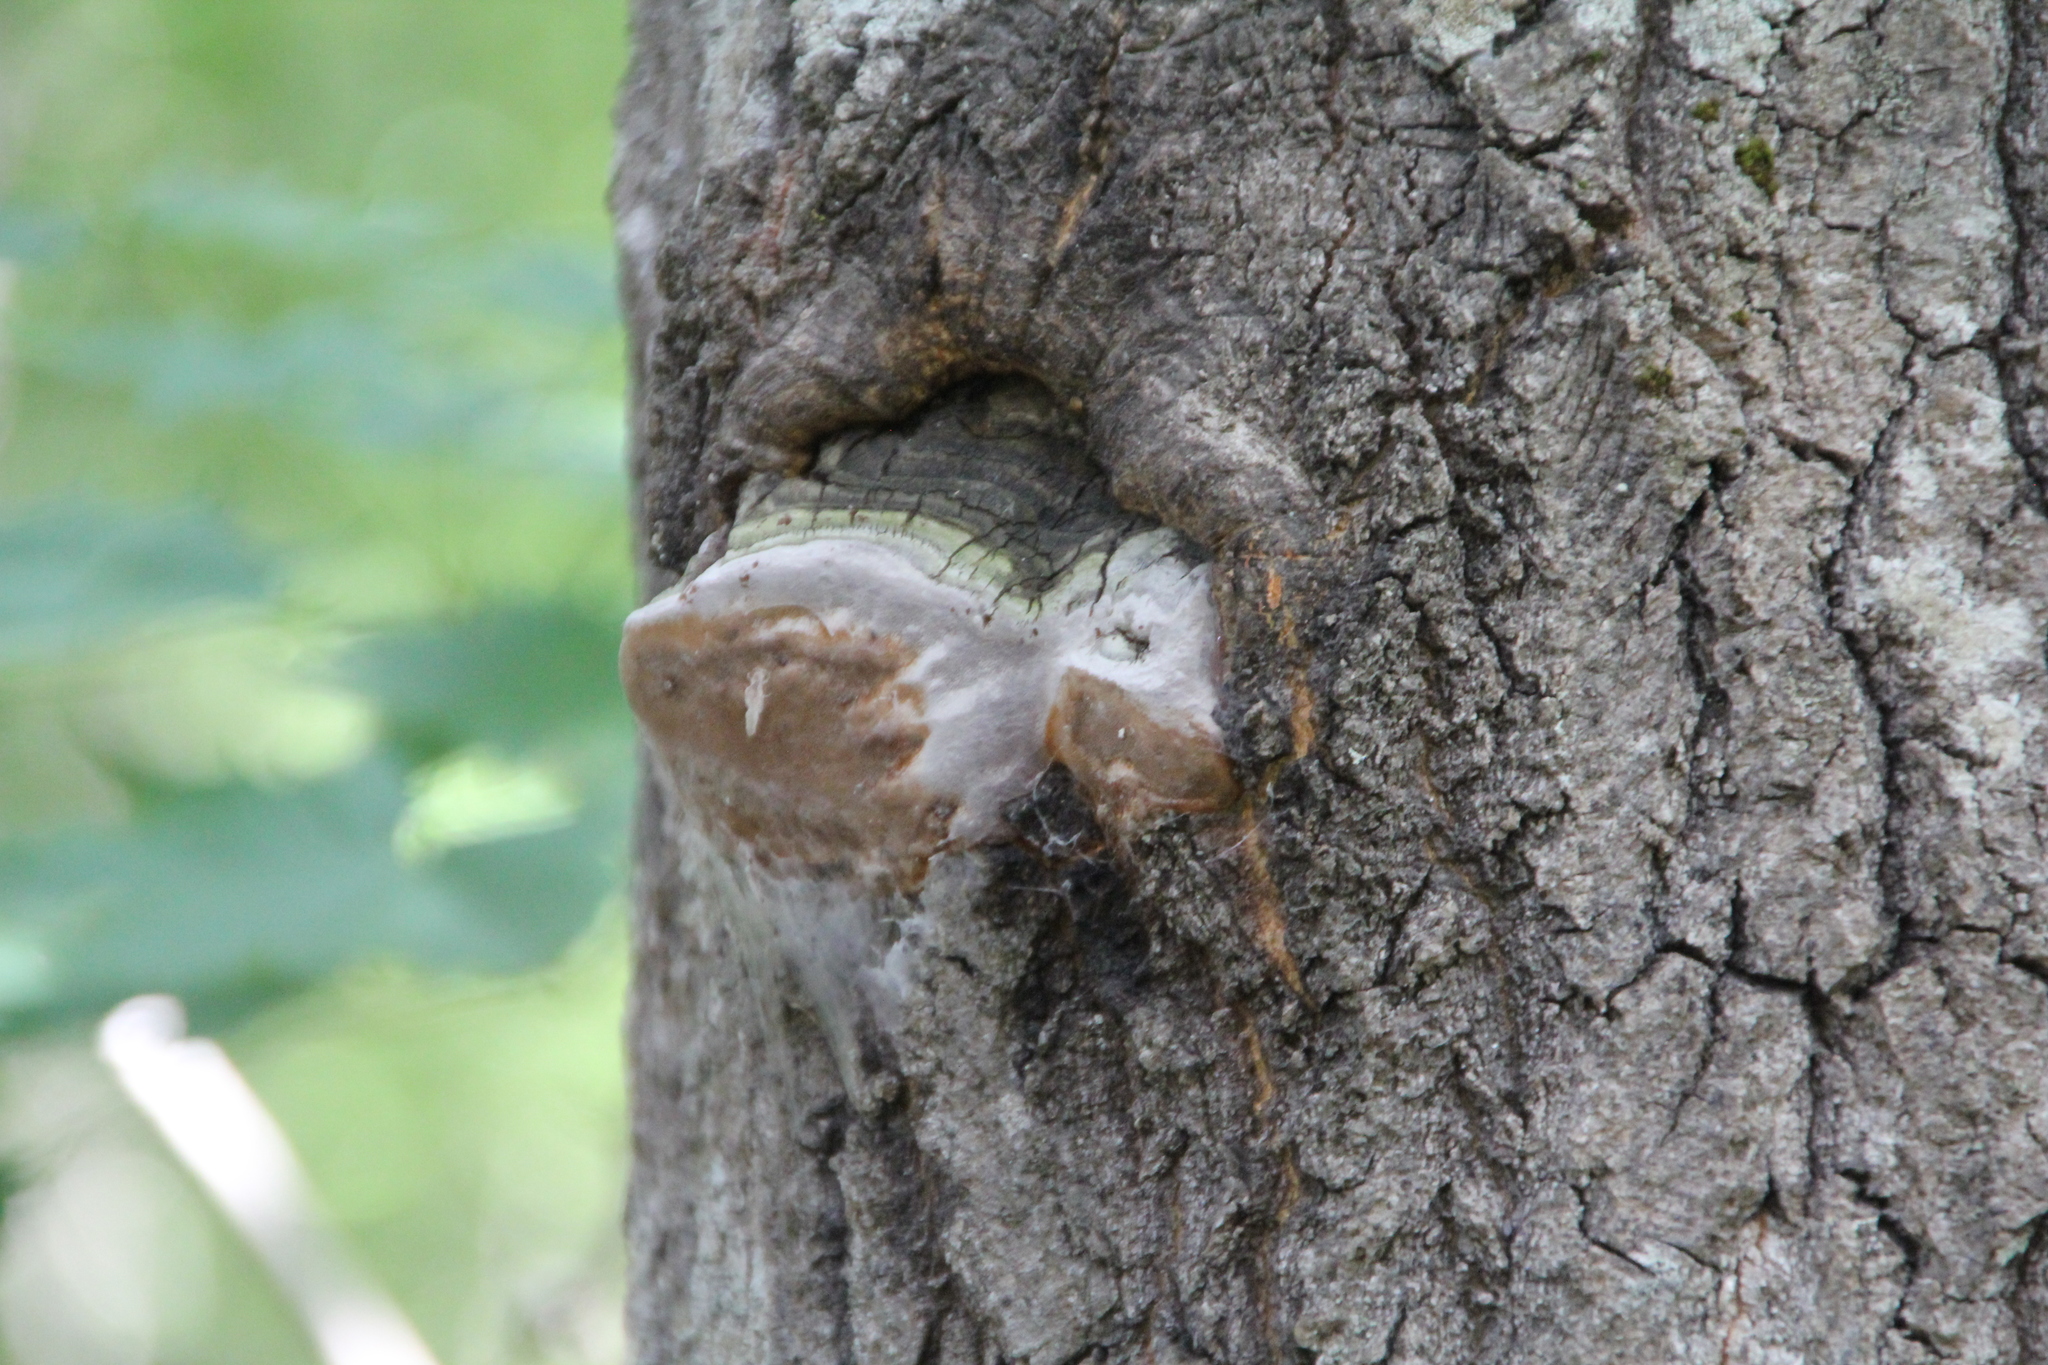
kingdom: Fungi
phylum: Basidiomycota
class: Agaricomycetes
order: Hymenochaetales
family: Hymenochaetaceae
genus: Phellinus
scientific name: Phellinus tremulae
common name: Aspen bracket
